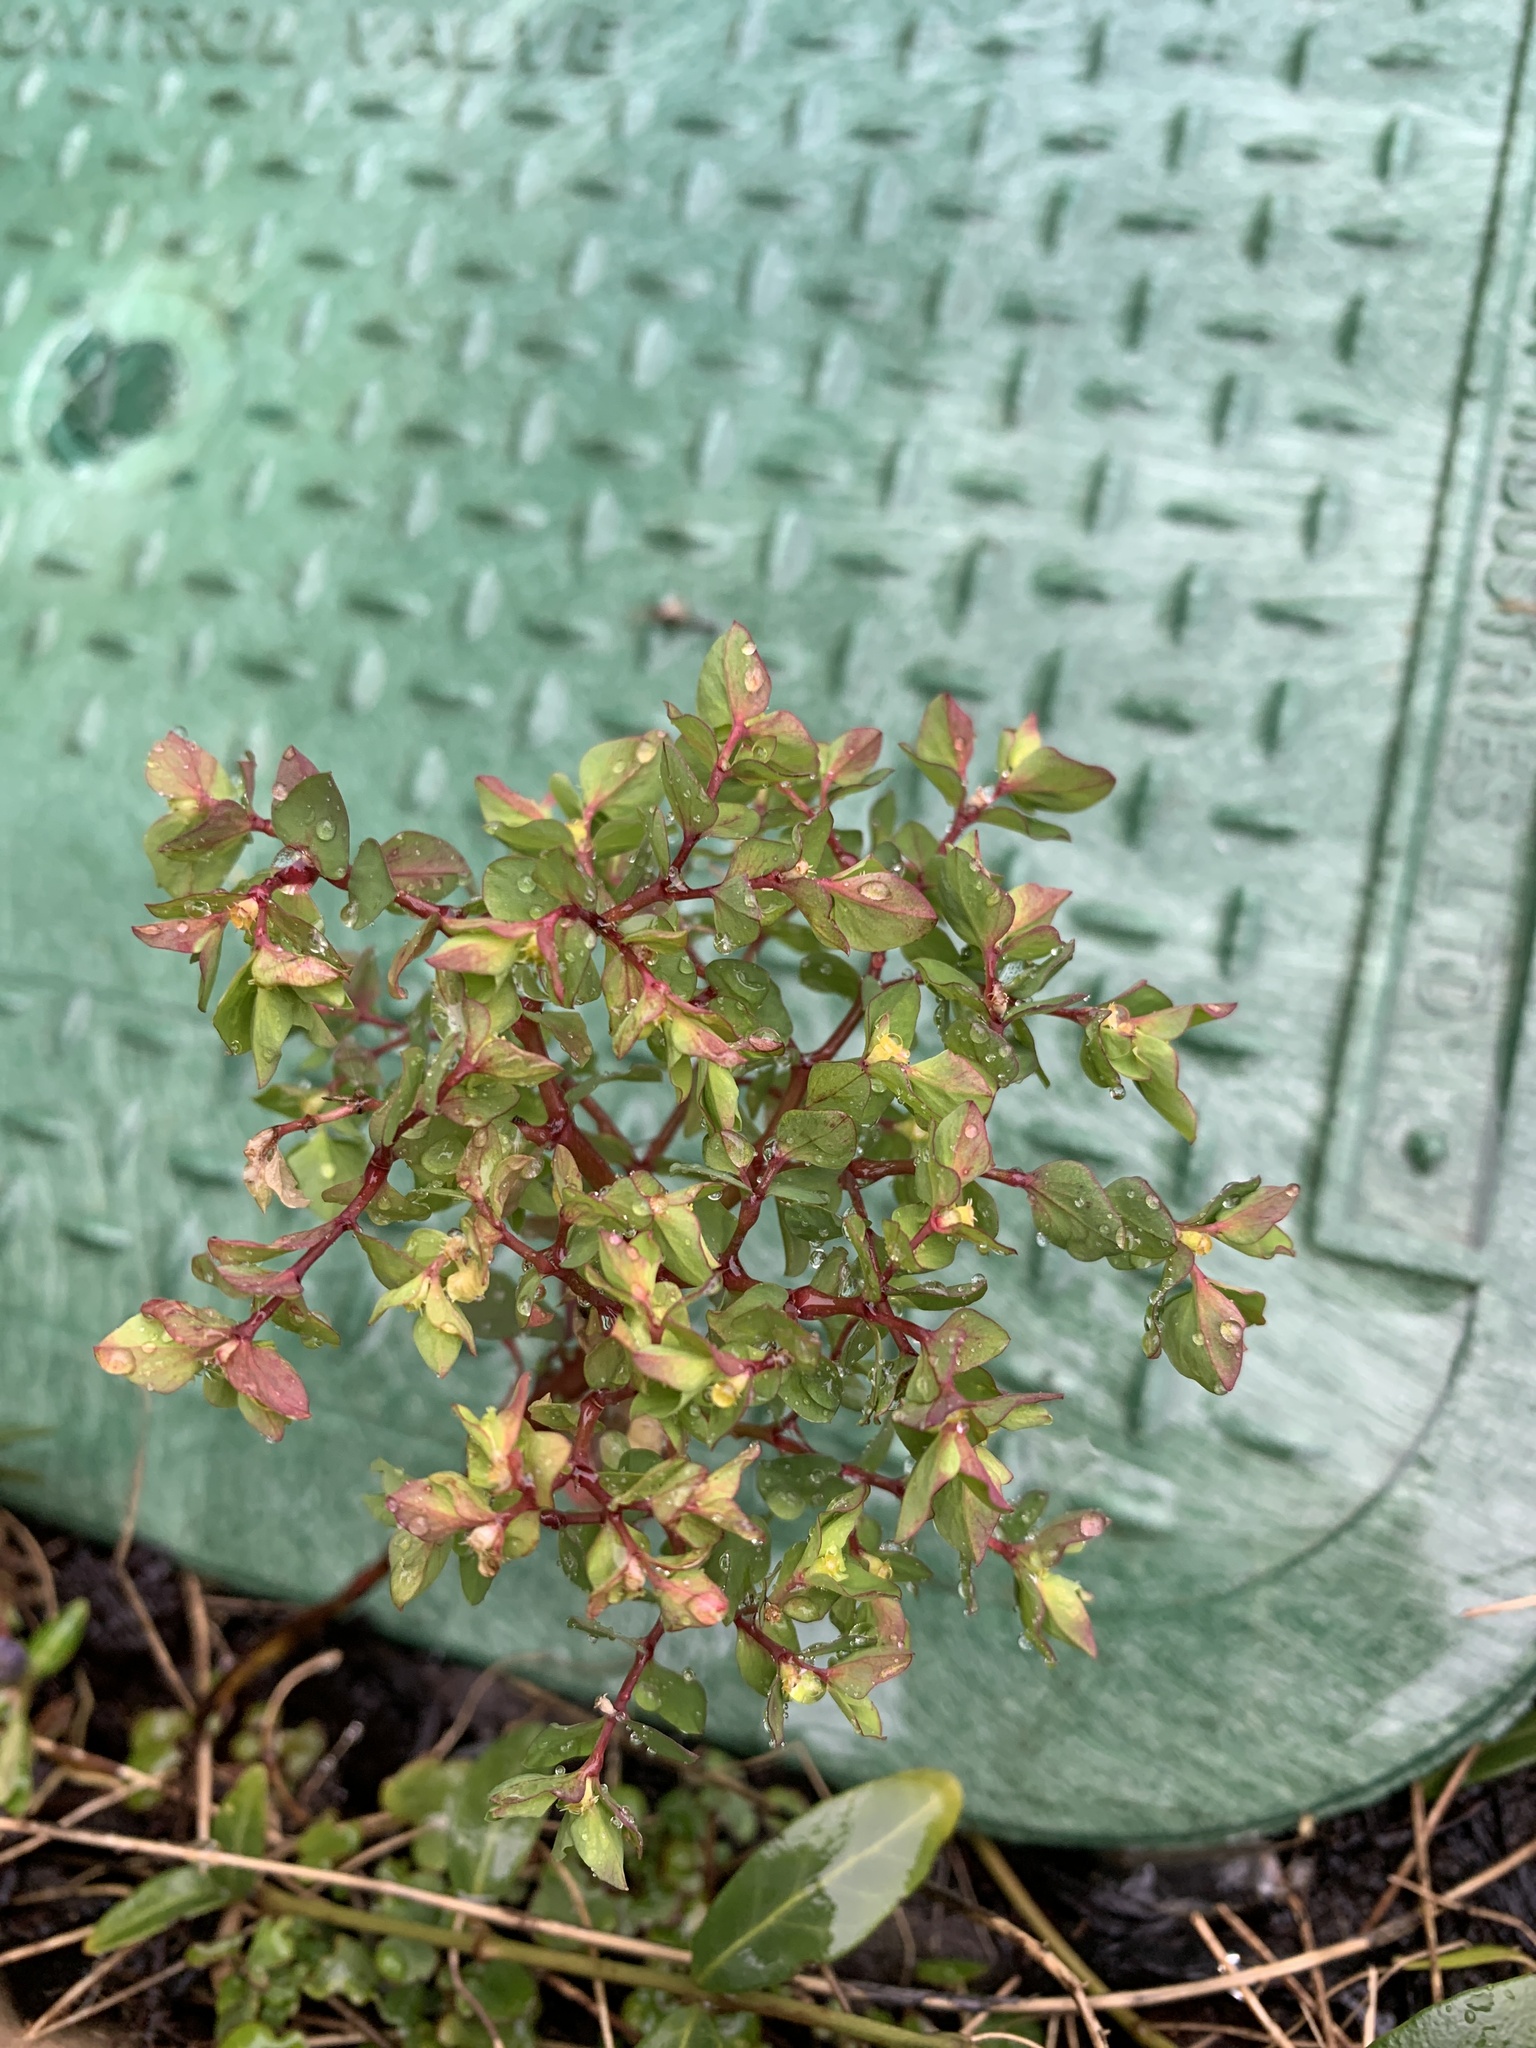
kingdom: Plantae
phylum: Tracheophyta
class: Magnoliopsida
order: Malpighiales
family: Euphorbiaceae
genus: Euphorbia
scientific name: Euphorbia peplus
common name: Petty spurge
